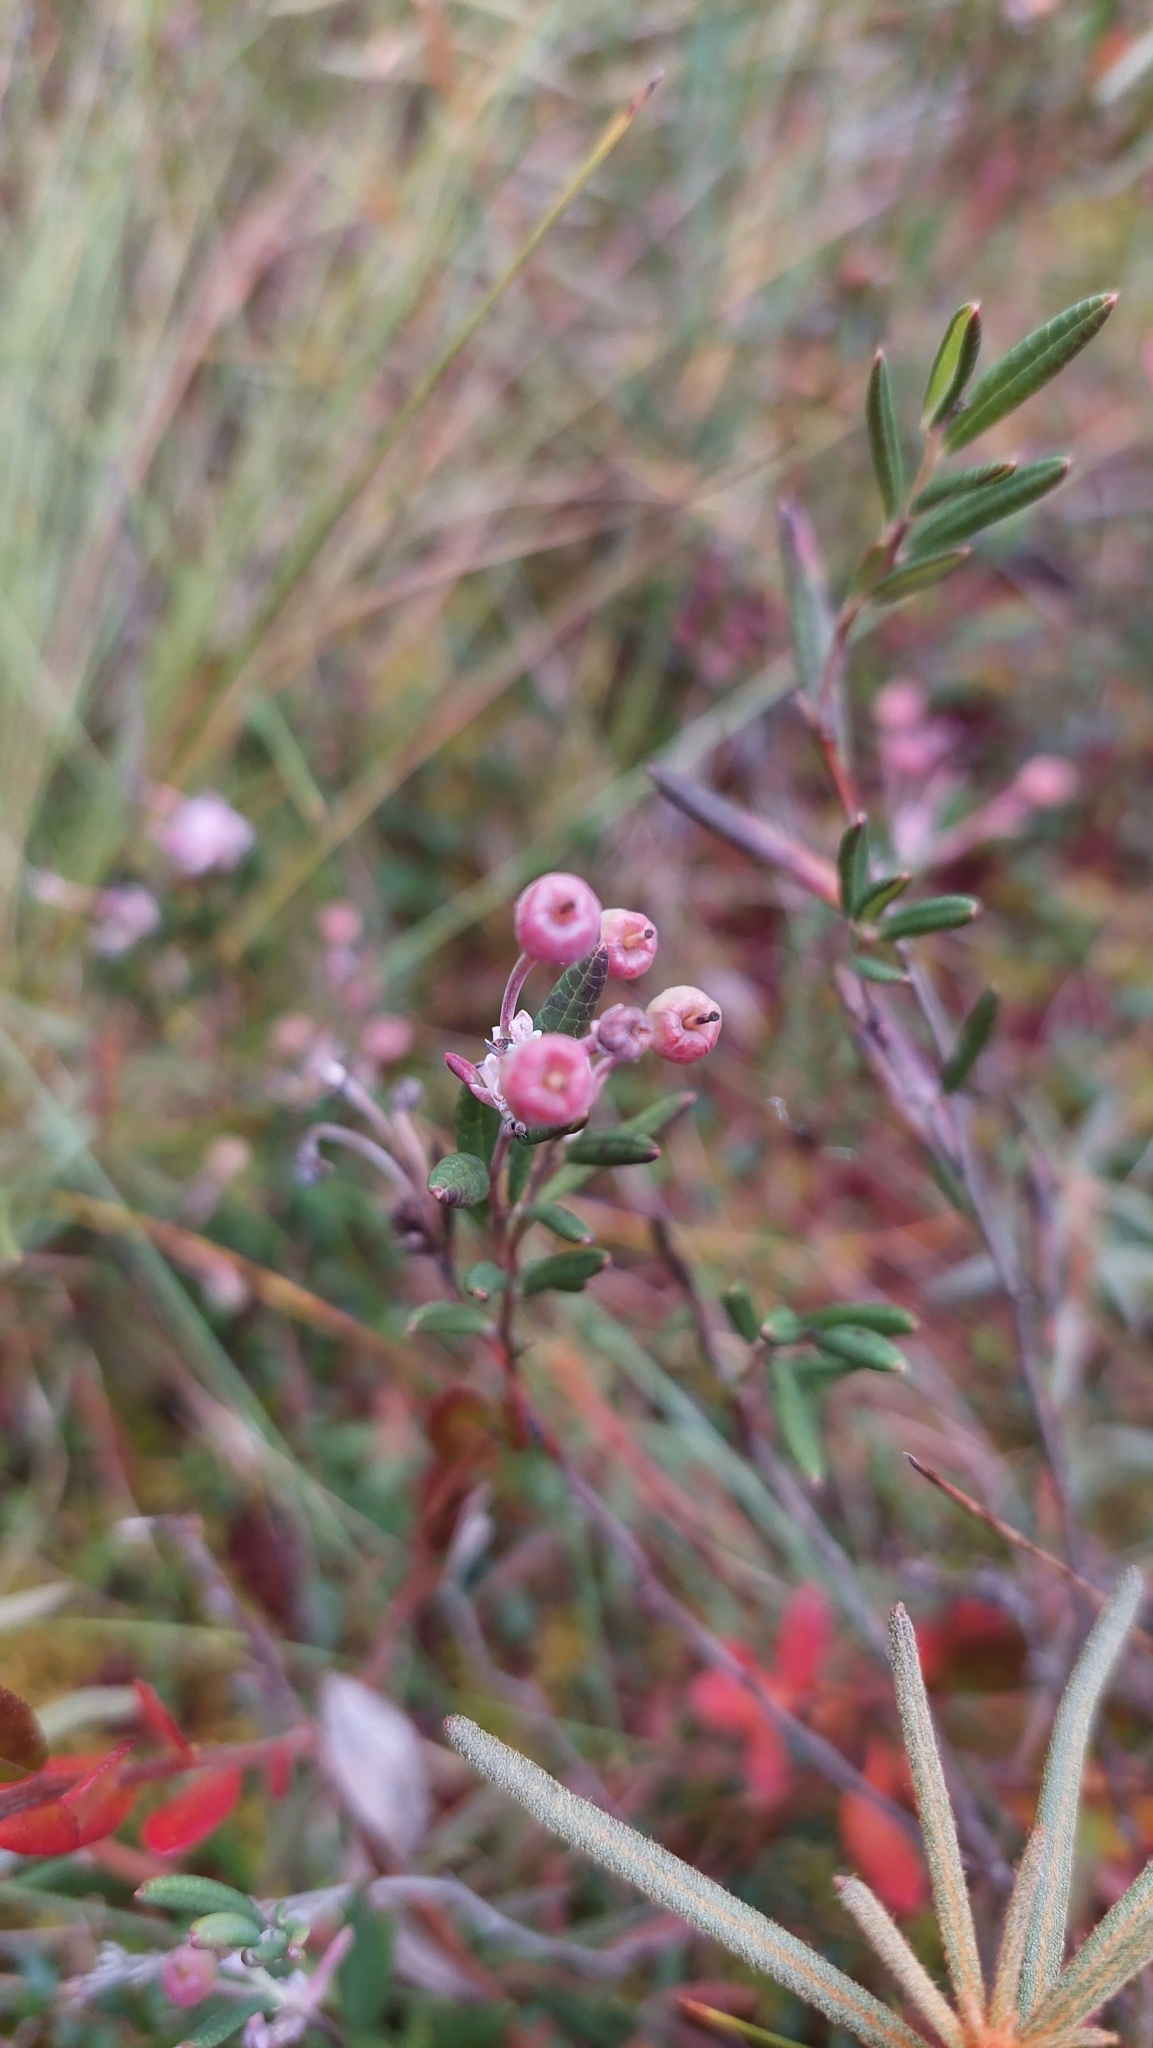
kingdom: Plantae
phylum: Tracheophyta
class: Magnoliopsida
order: Ericales
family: Ericaceae
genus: Andromeda
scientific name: Andromeda polifolia
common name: Bog-rosemary
